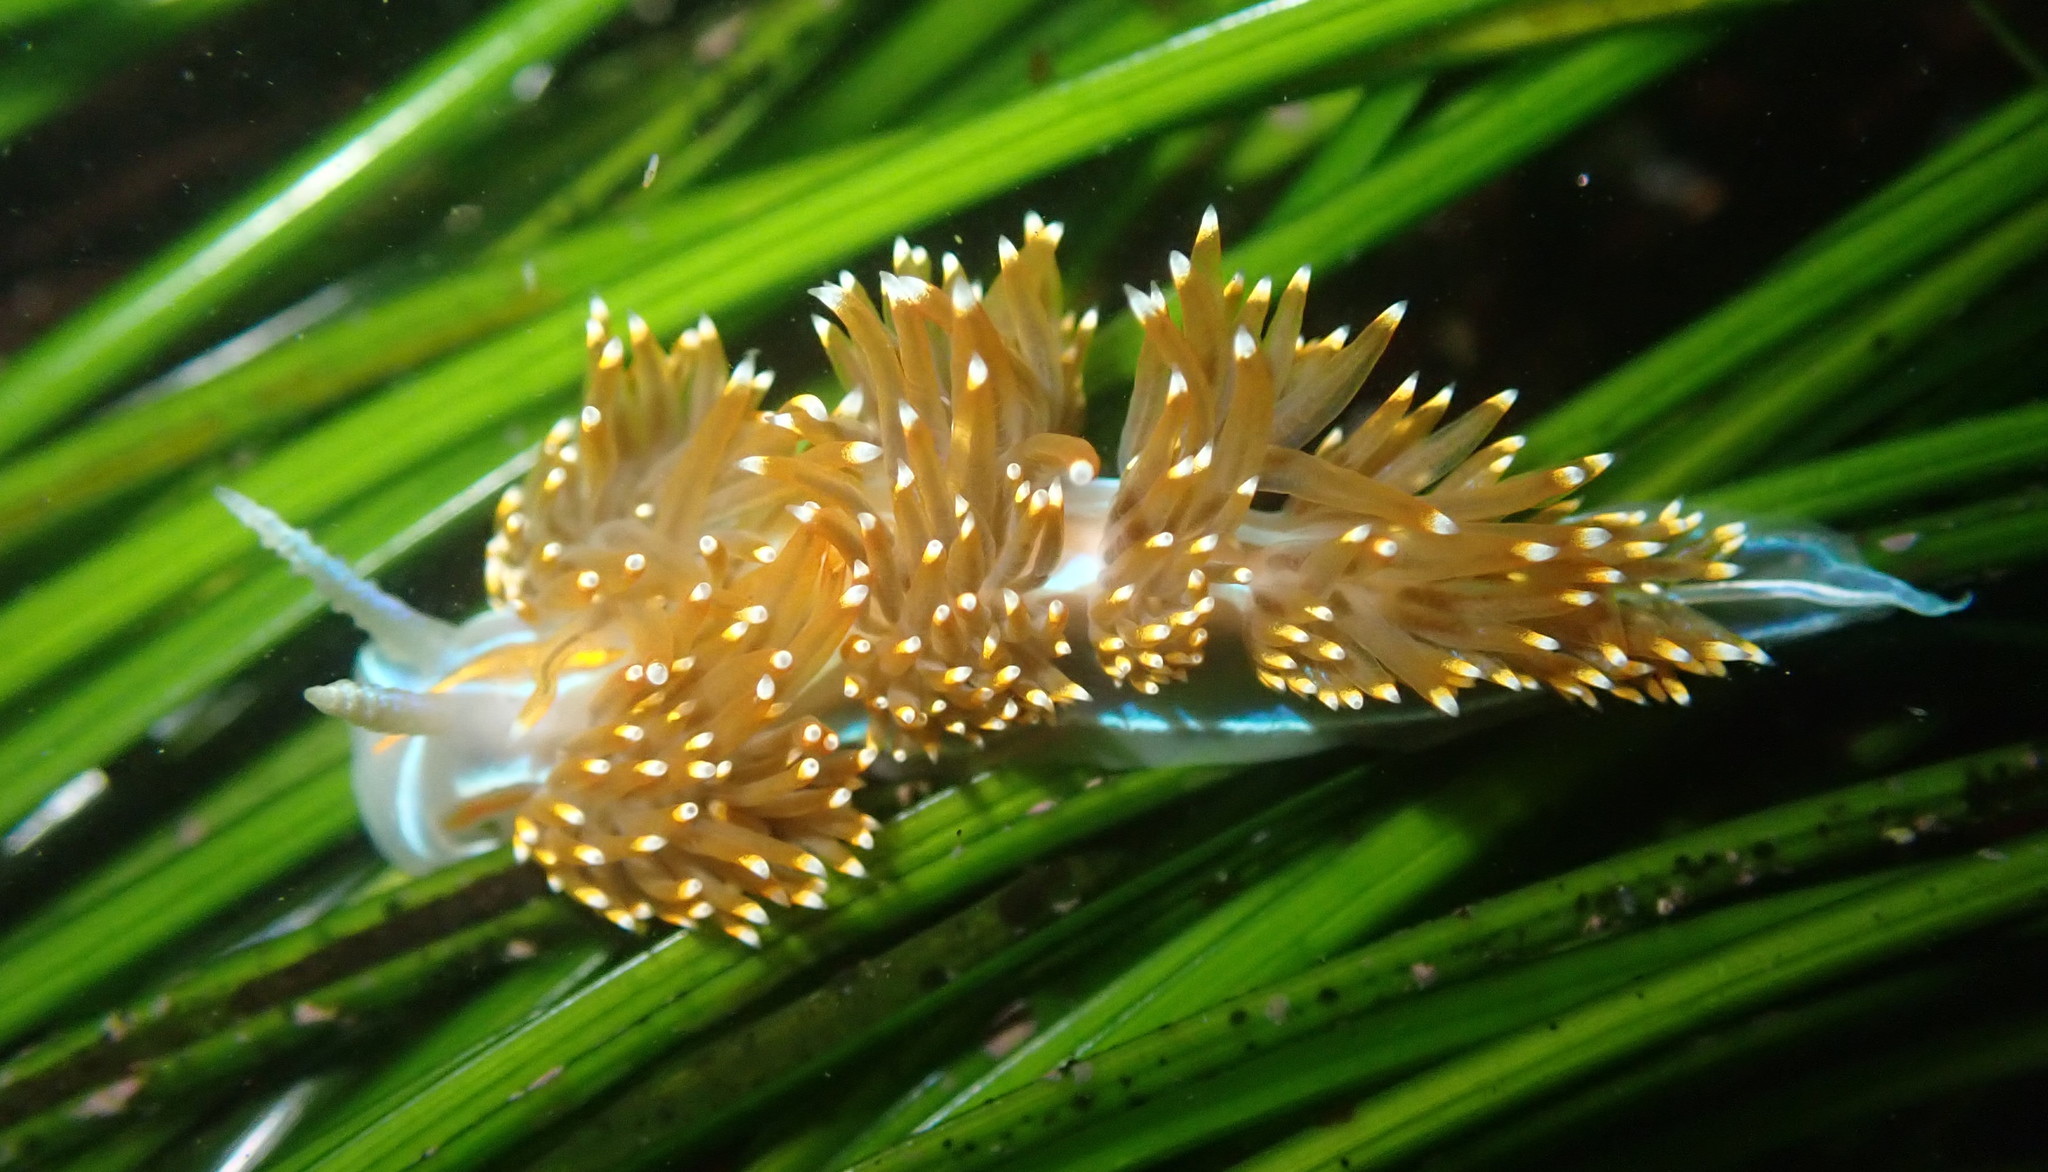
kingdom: Animalia
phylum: Mollusca
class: Gastropoda
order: Nudibranchia
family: Myrrhinidae
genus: Hermissenda
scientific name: Hermissenda opalescens
